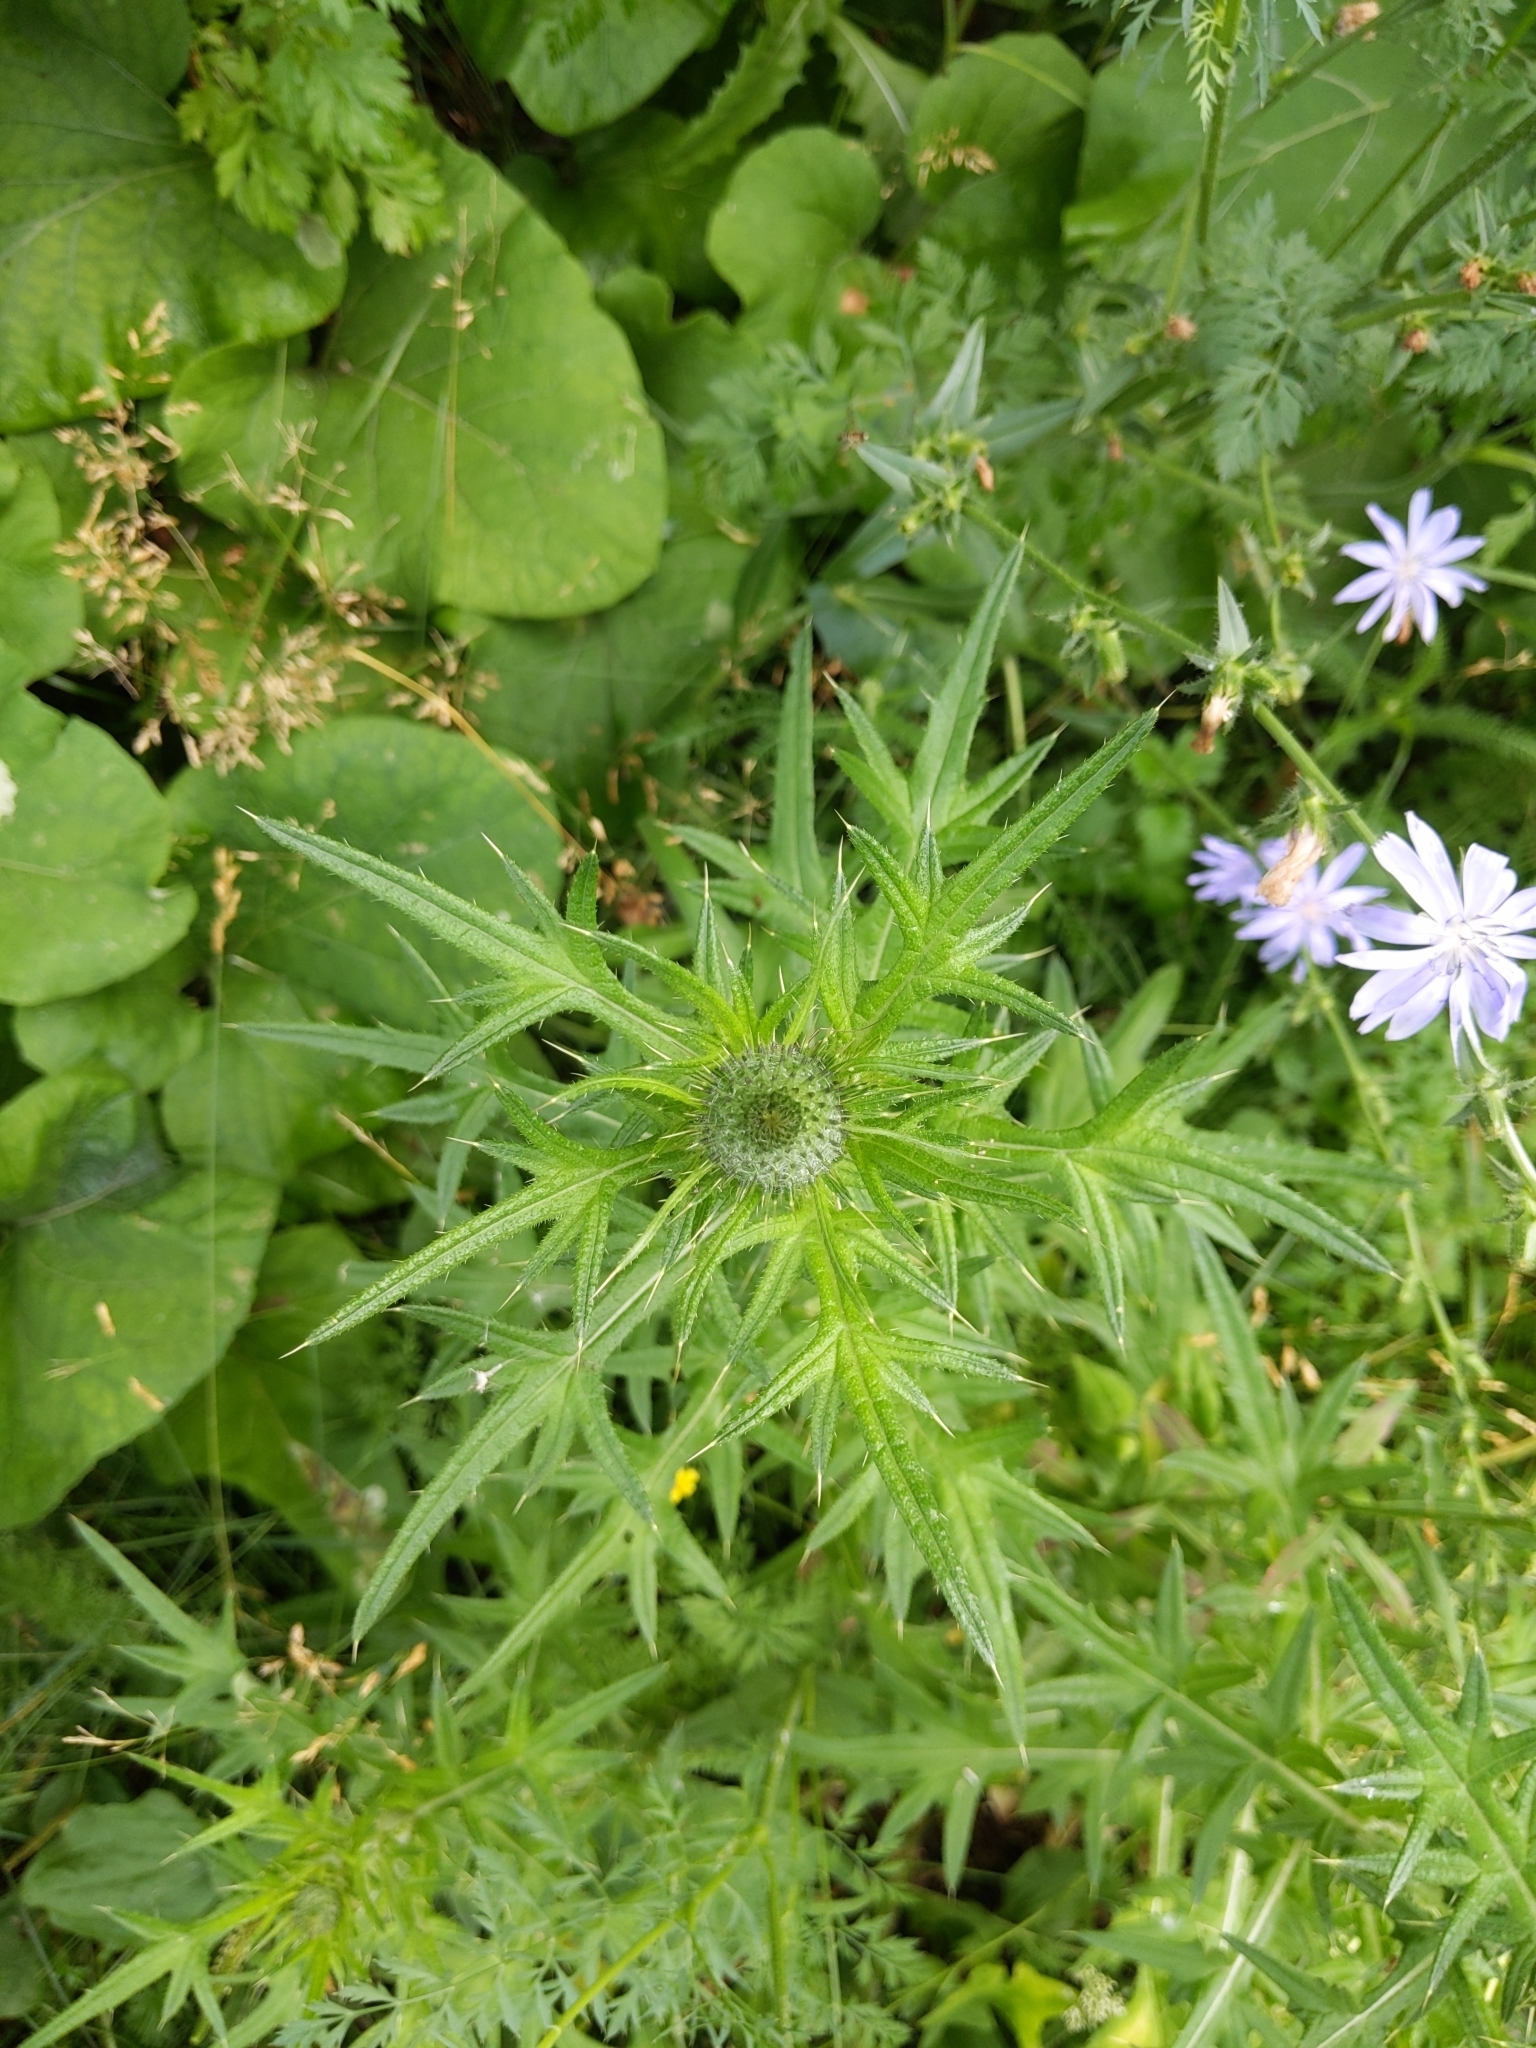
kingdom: Plantae
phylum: Tracheophyta
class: Magnoliopsida
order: Asterales
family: Asteraceae
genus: Cirsium
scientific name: Cirsium vulgare
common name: Bull thistle
